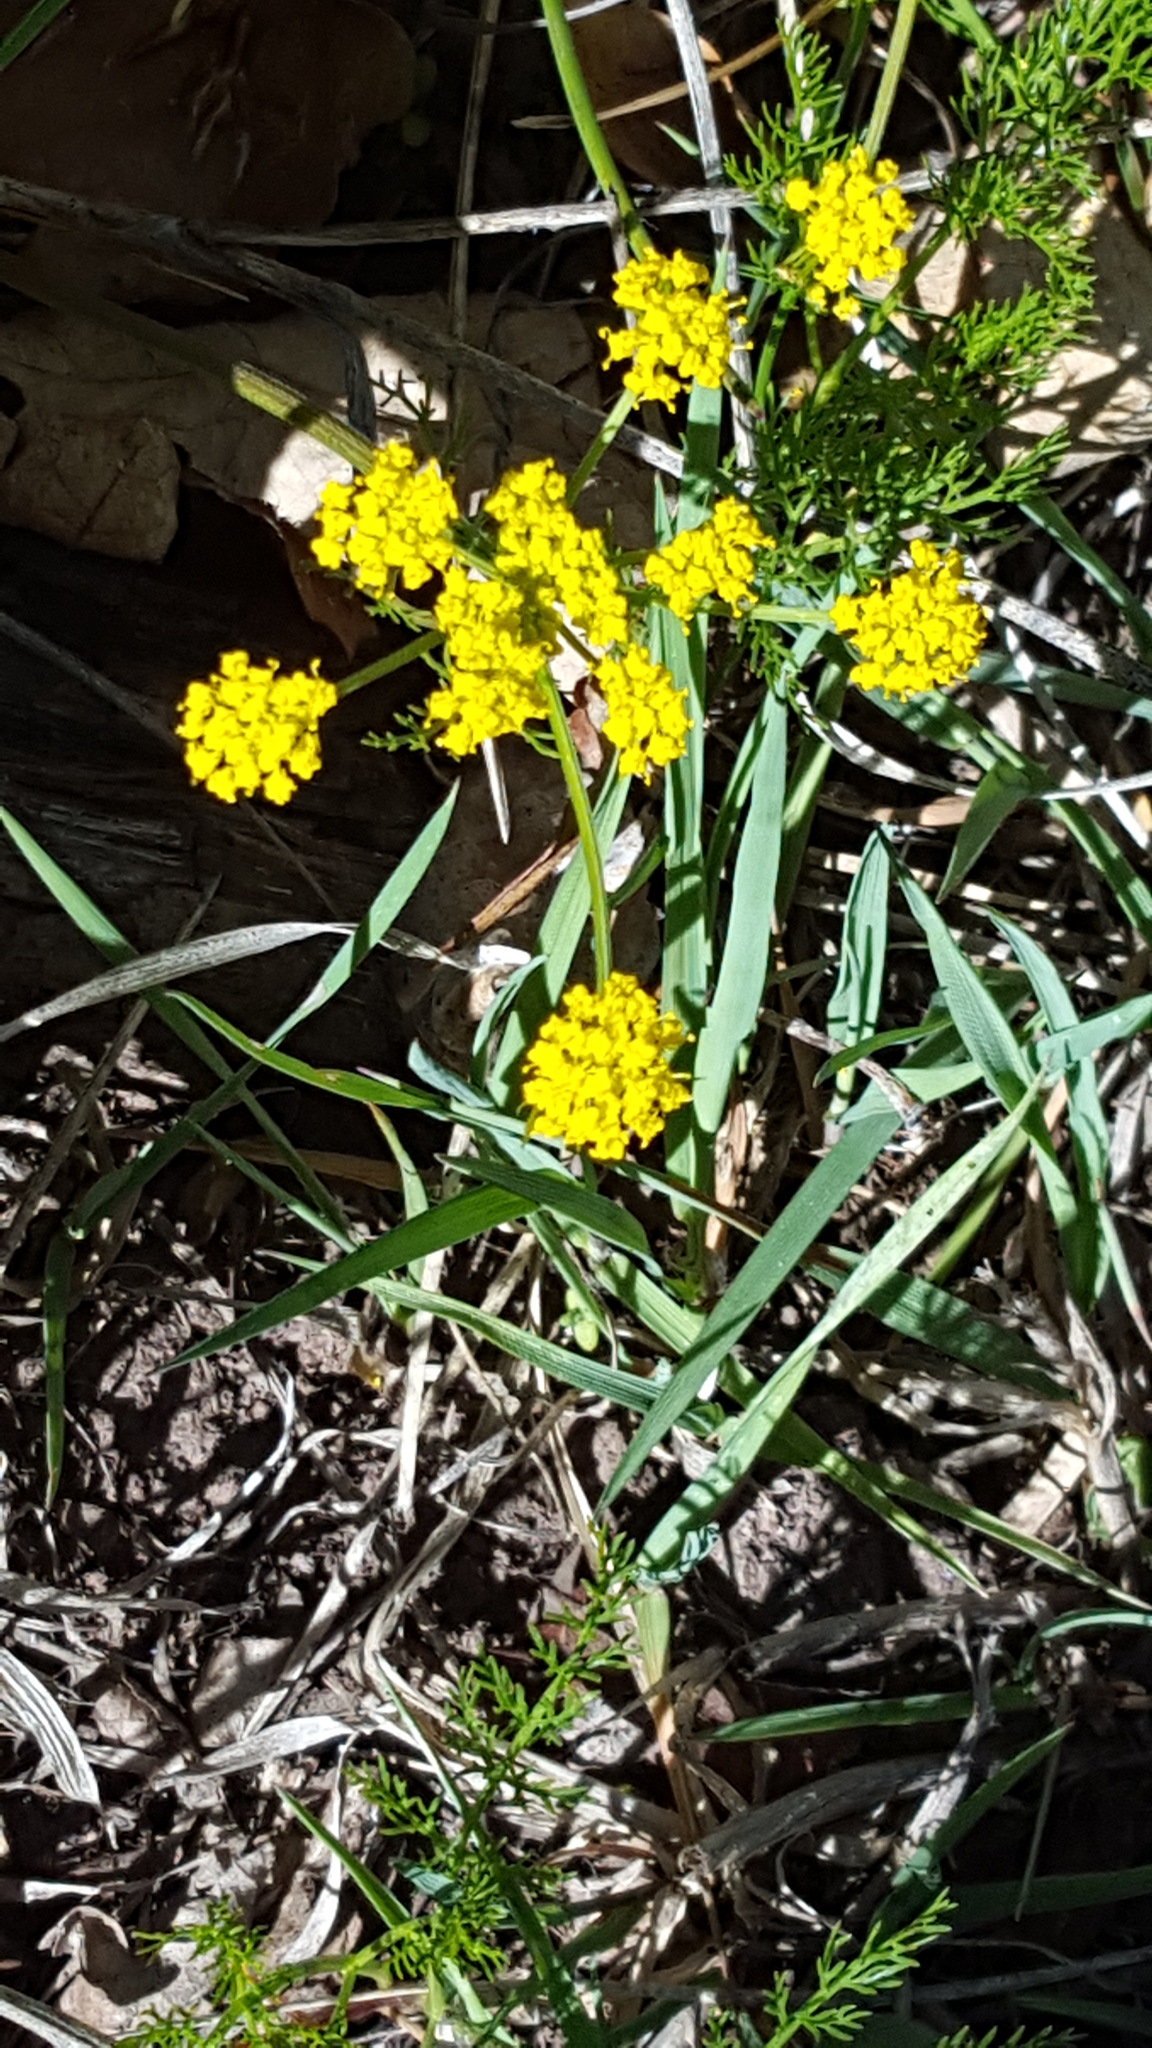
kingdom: Plantae
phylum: Tracheophyta
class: Magnoliopsida
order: Apiales
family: Apiaceae
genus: Cymopterus
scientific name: Cymopterus lemmonii
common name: Lemmon's spring-parsley
